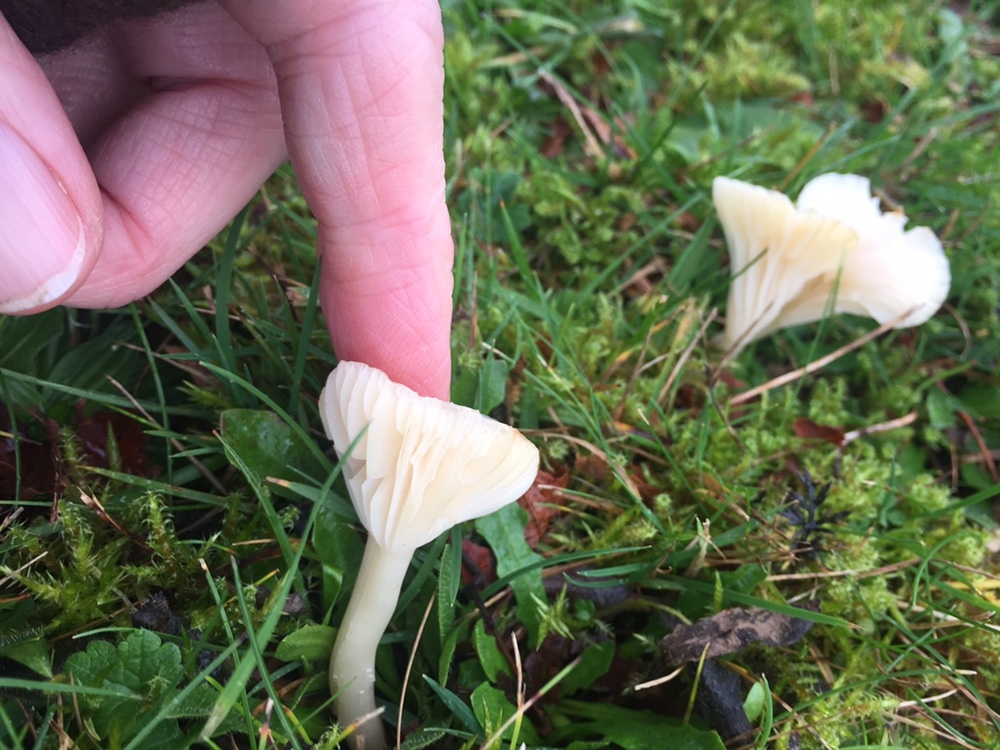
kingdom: Fungi
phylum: Basidiomycota
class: Agaricomycetes
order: Agaricales
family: Hygrophoraceae
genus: Cuphophyllus
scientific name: Cuphophyllus virgineus
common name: Snowy waxcap
